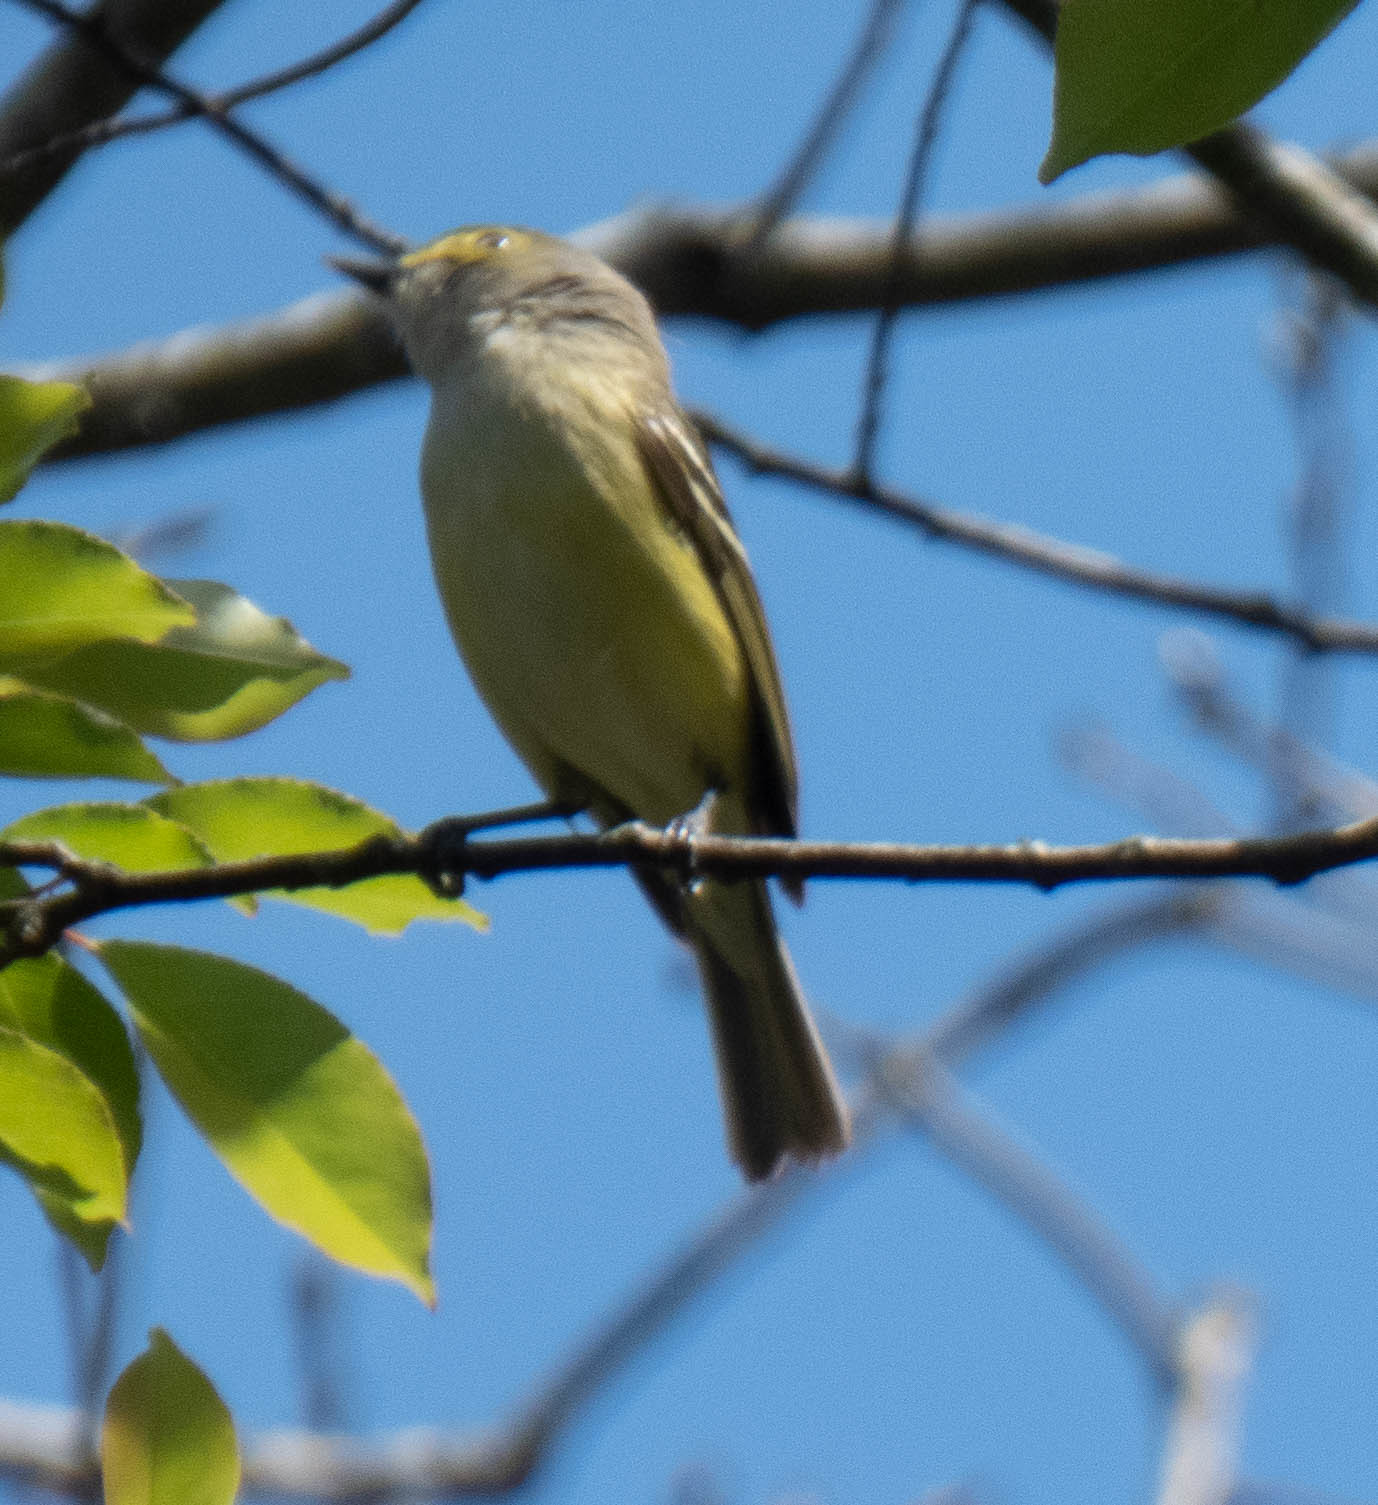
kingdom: Animalia
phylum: Chordata
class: Aves
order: Passeriformes
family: Vireonidae
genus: Vireo
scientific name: Vireo griseus
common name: White-eyed vireo
